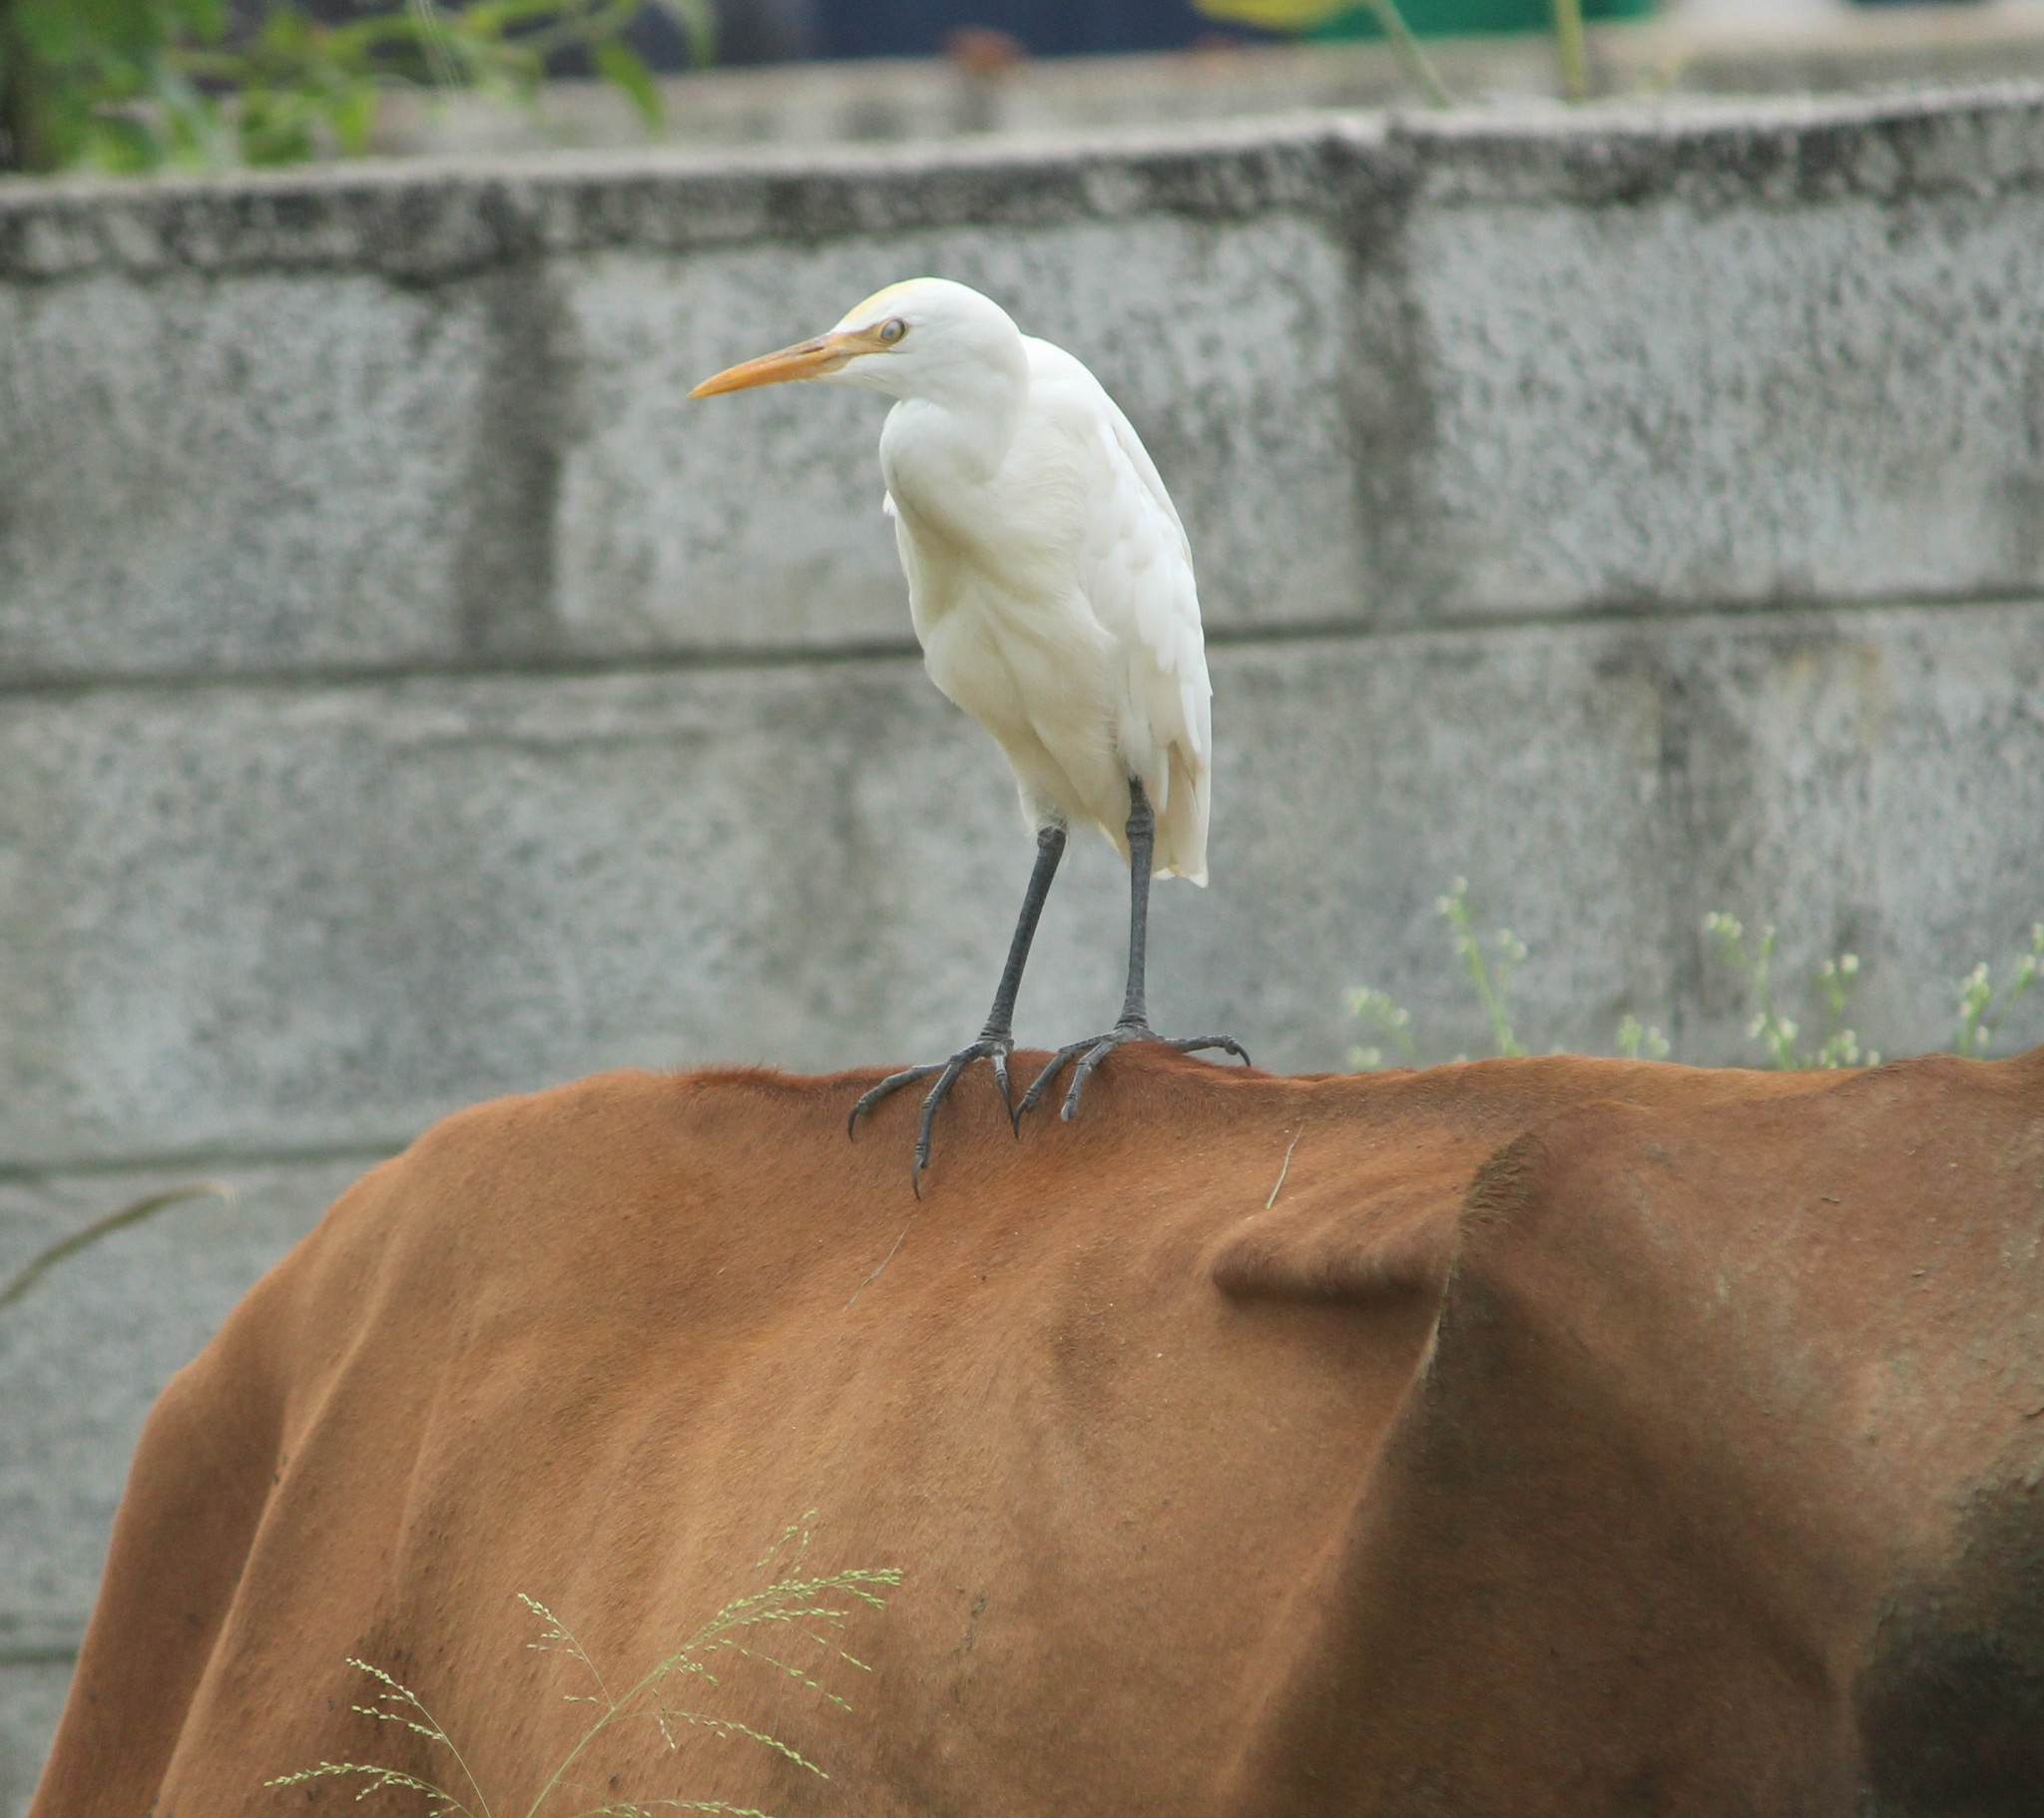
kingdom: Animalia
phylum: Chordata
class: Aves
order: Pelecaniformes
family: Ardeidae
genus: Bubulcus
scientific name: Bubulcus coromandus
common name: Eastern cattle egret
